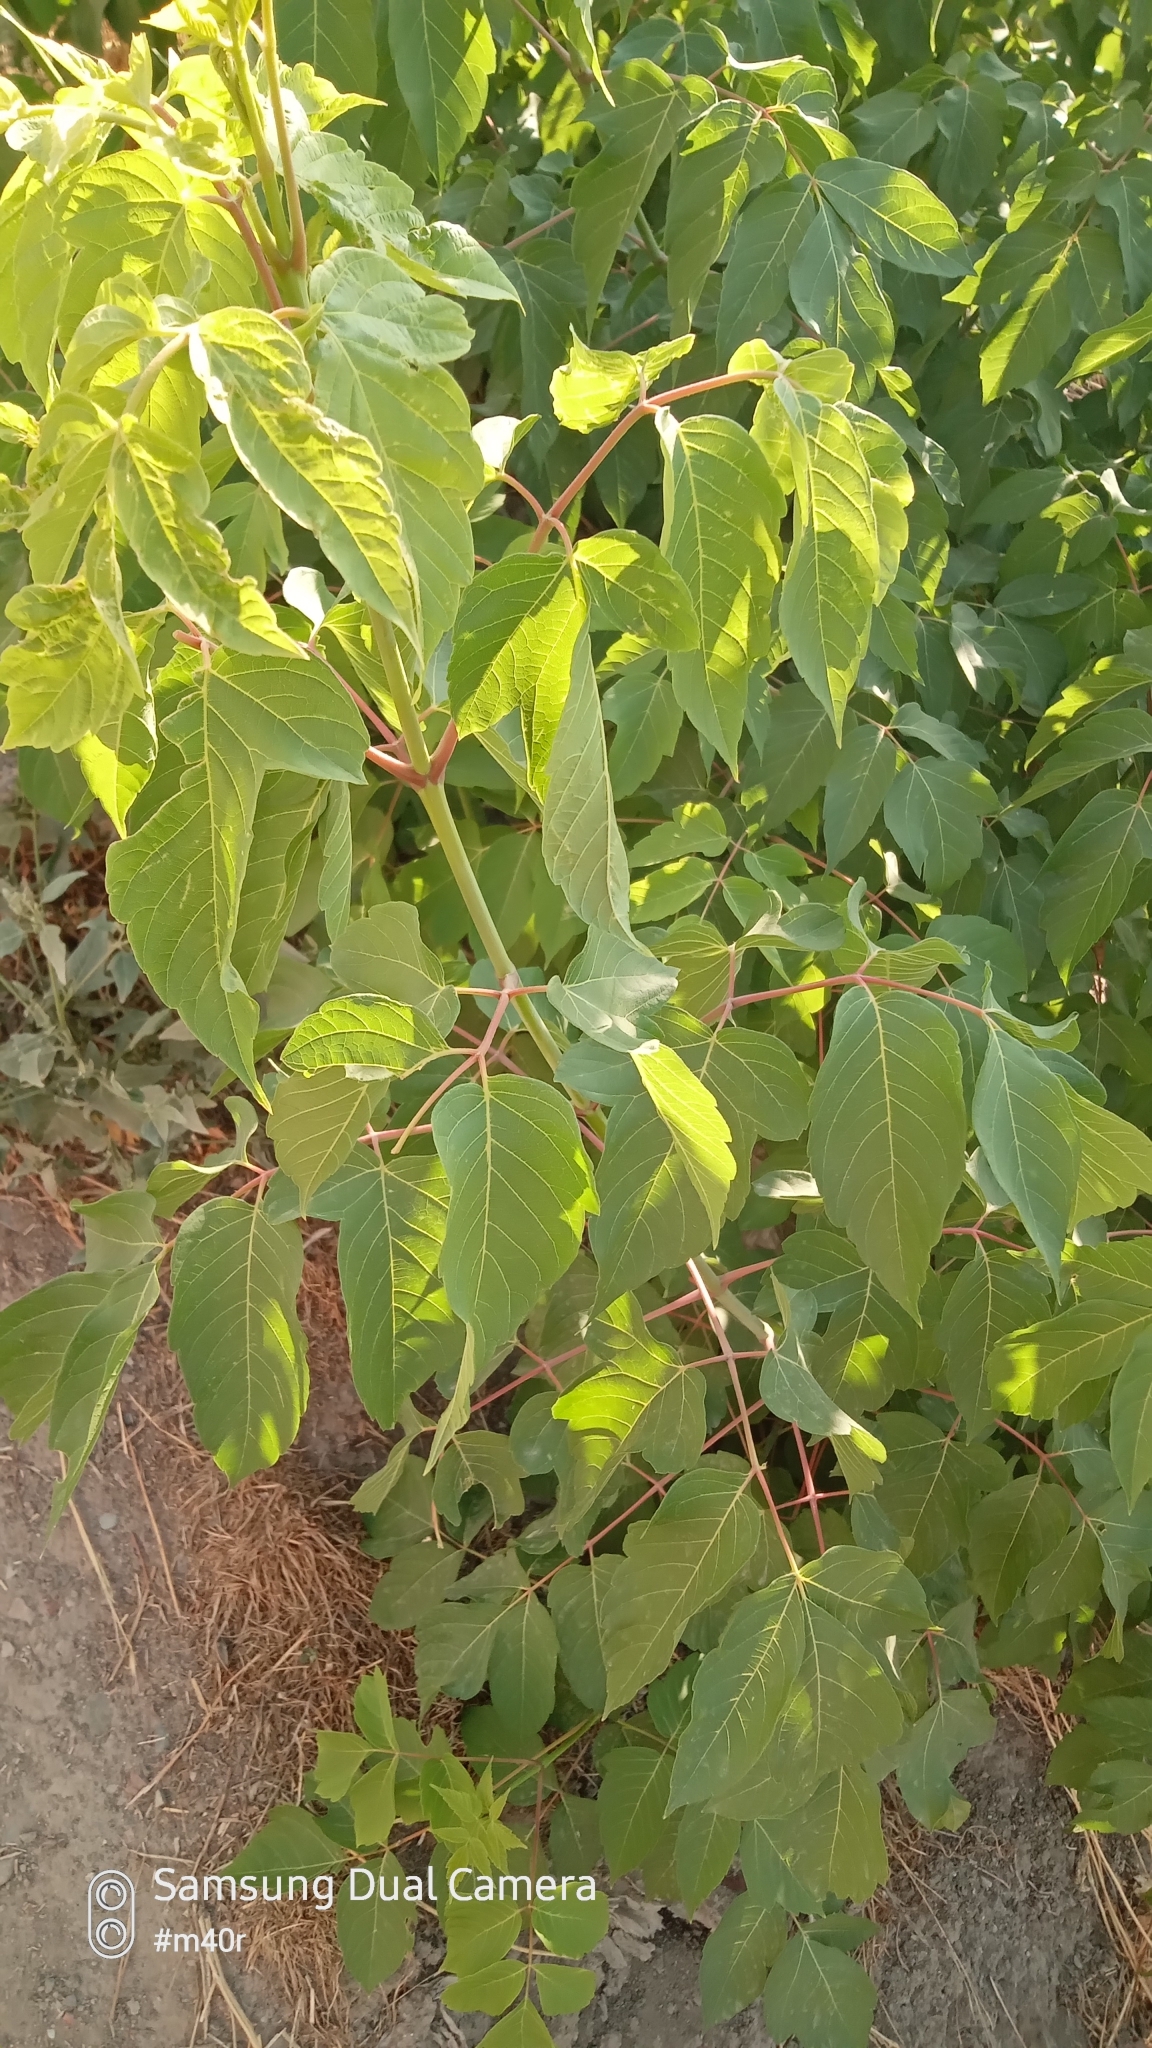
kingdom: Plantae
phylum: Tracheophyta
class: Magnoliopsida
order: Sapindales
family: Sapindaceae
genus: Acer
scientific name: Acer negundo
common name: Ashleaf maple
